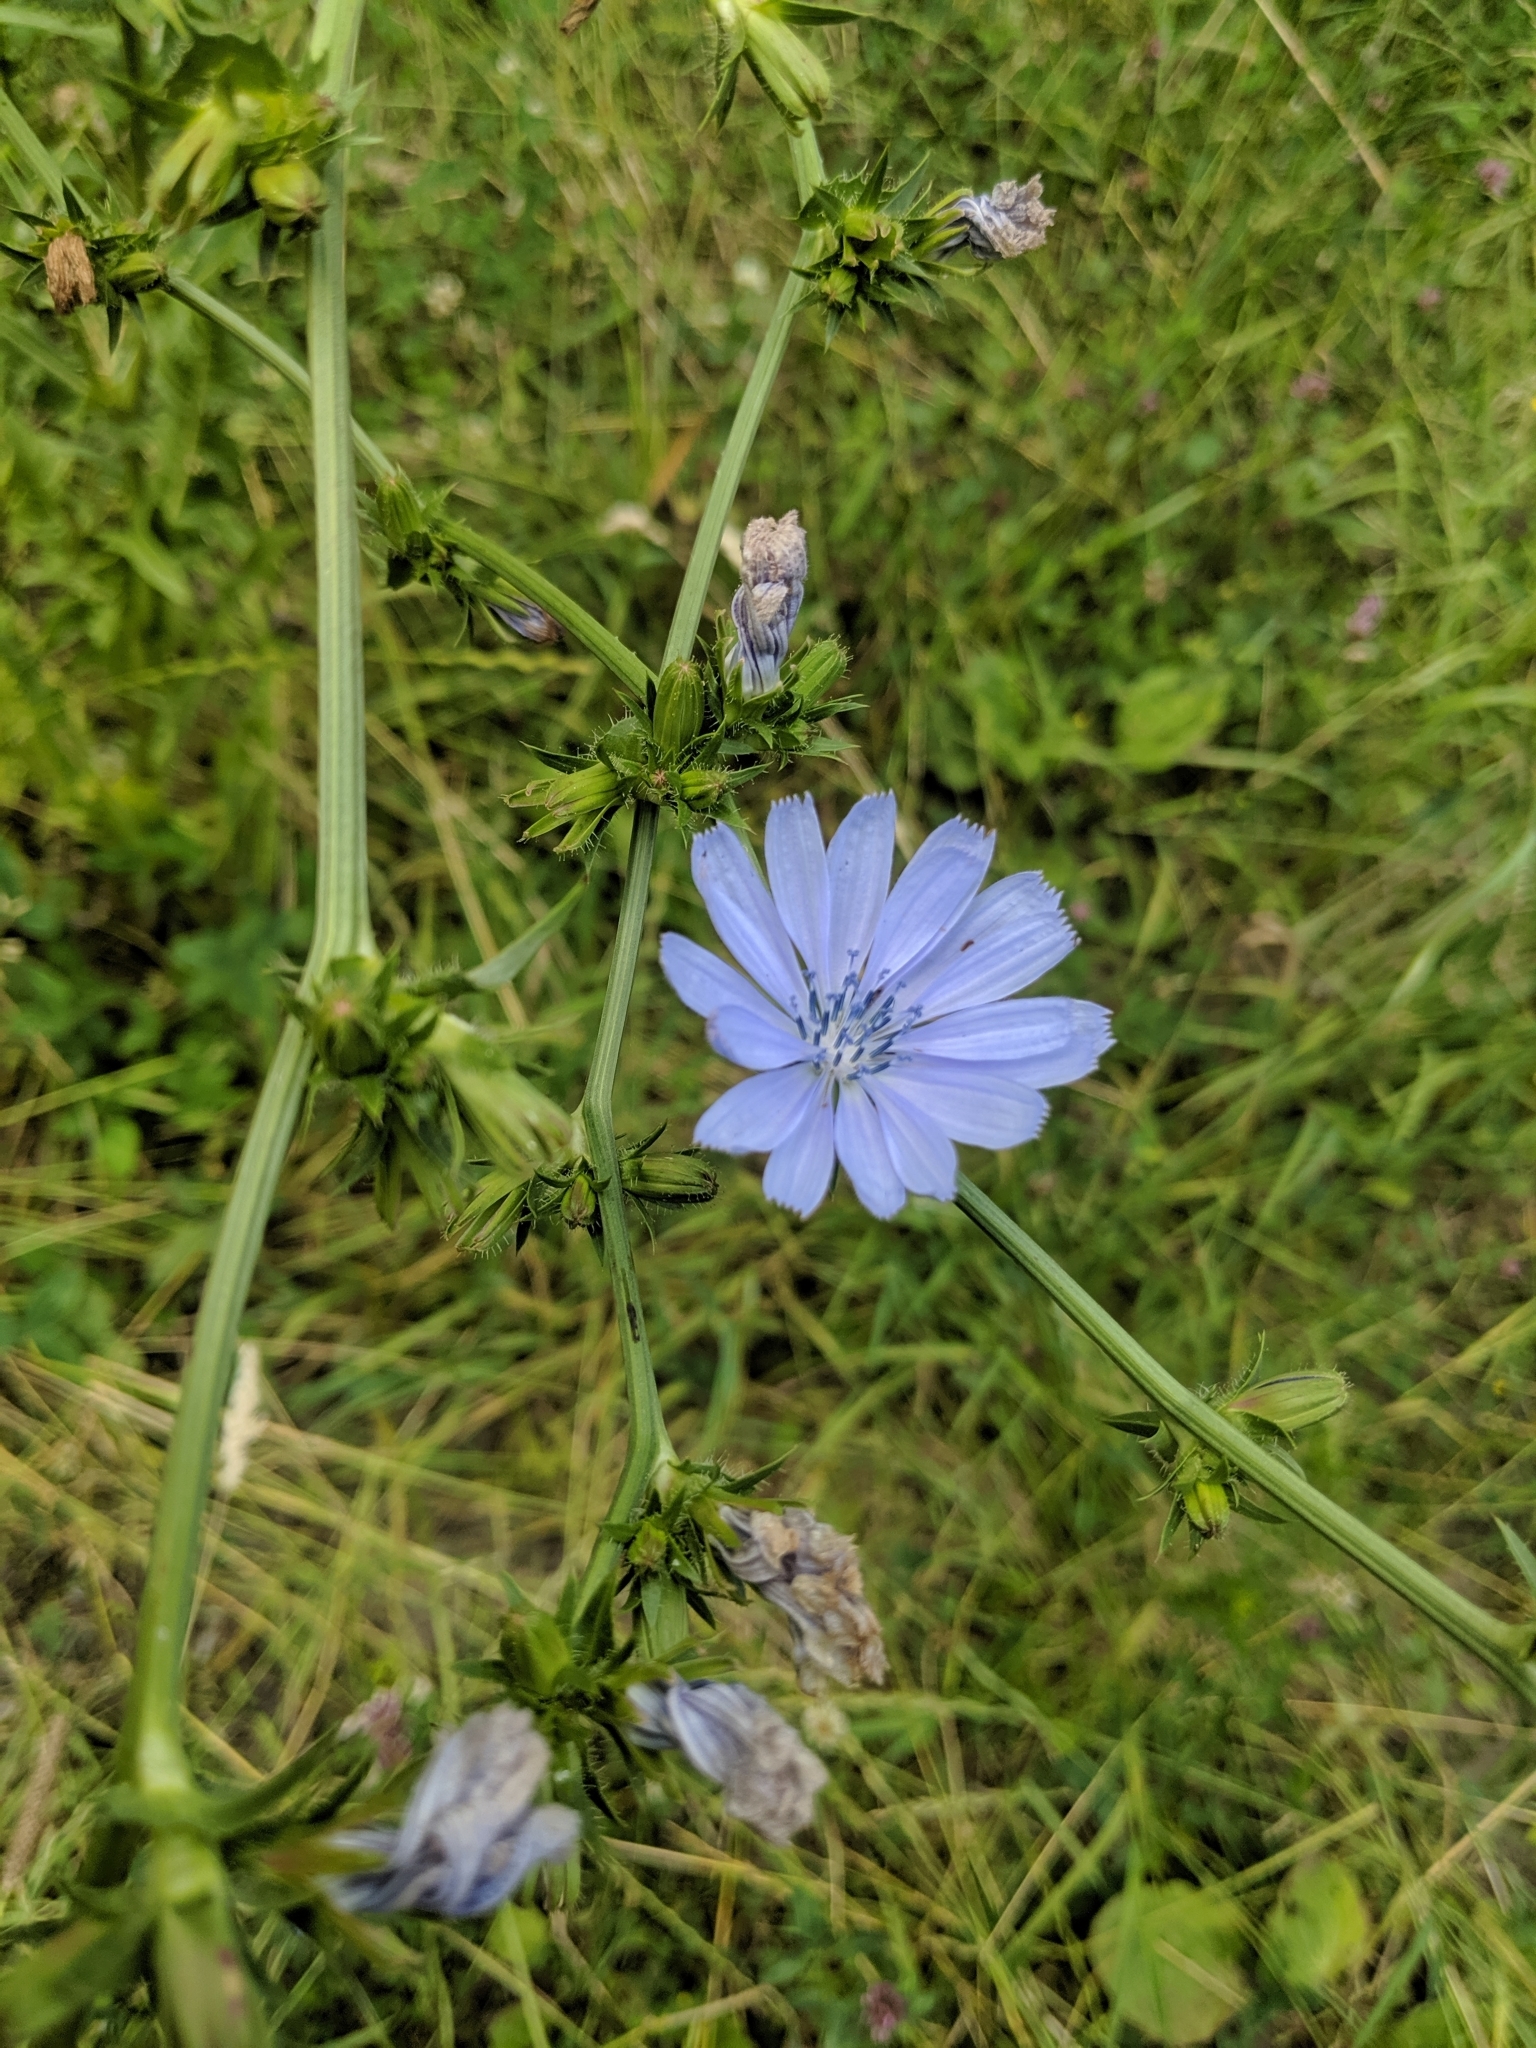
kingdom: Plantae
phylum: Tracheophyta
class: Magnoliopsida
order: Asterales
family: Asteraceae
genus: Cichorium
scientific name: Cichorium intybus
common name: Chicory
